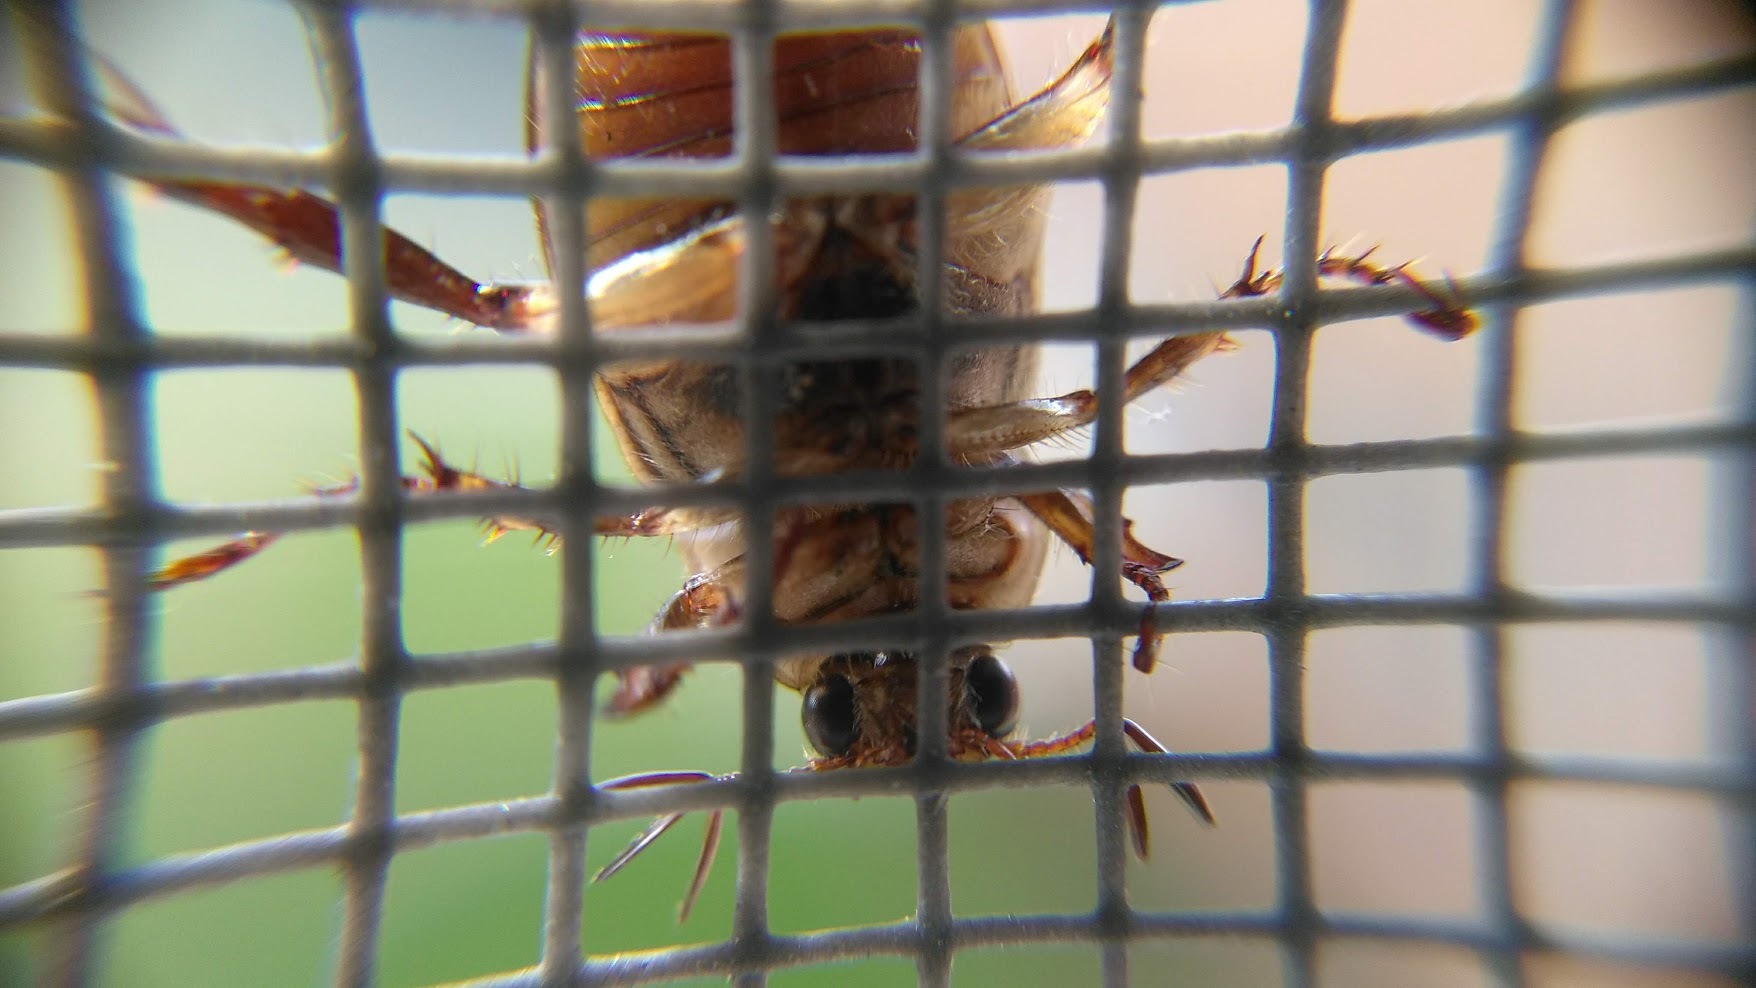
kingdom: Animalia
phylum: Arthropoda
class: Insecta
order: Coleoptera
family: Scarabaeidae
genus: Exomala
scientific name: Exomala orientalis
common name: Oriental beetle
